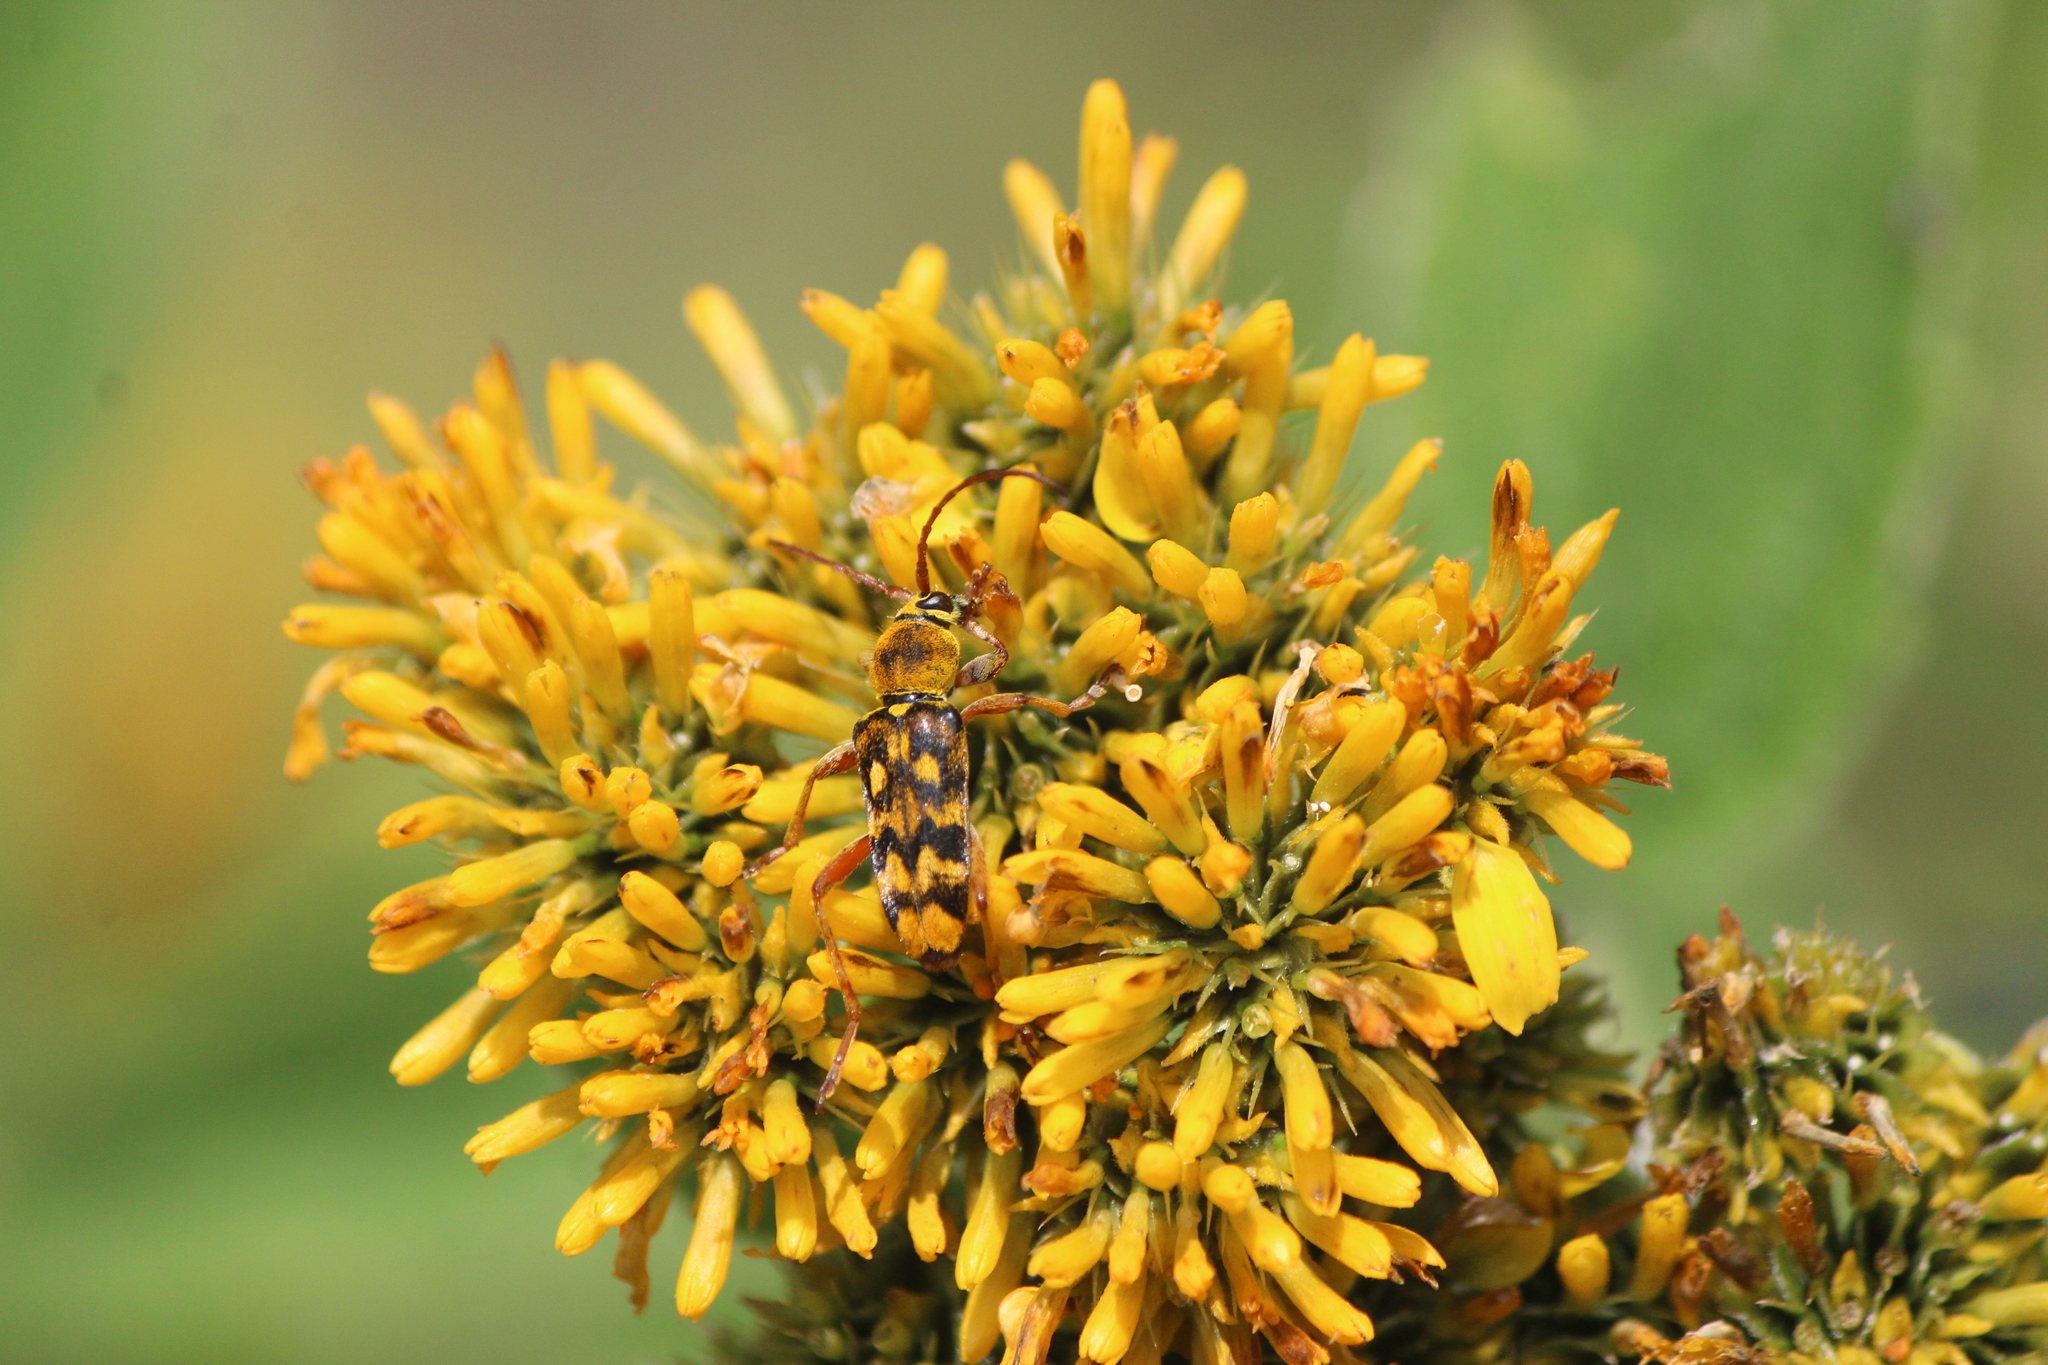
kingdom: Animalia
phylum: Arthropoda
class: Insecta
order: Coleoptera
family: Cerambycidae
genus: Ochraethes
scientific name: Ochraethes sommeri
